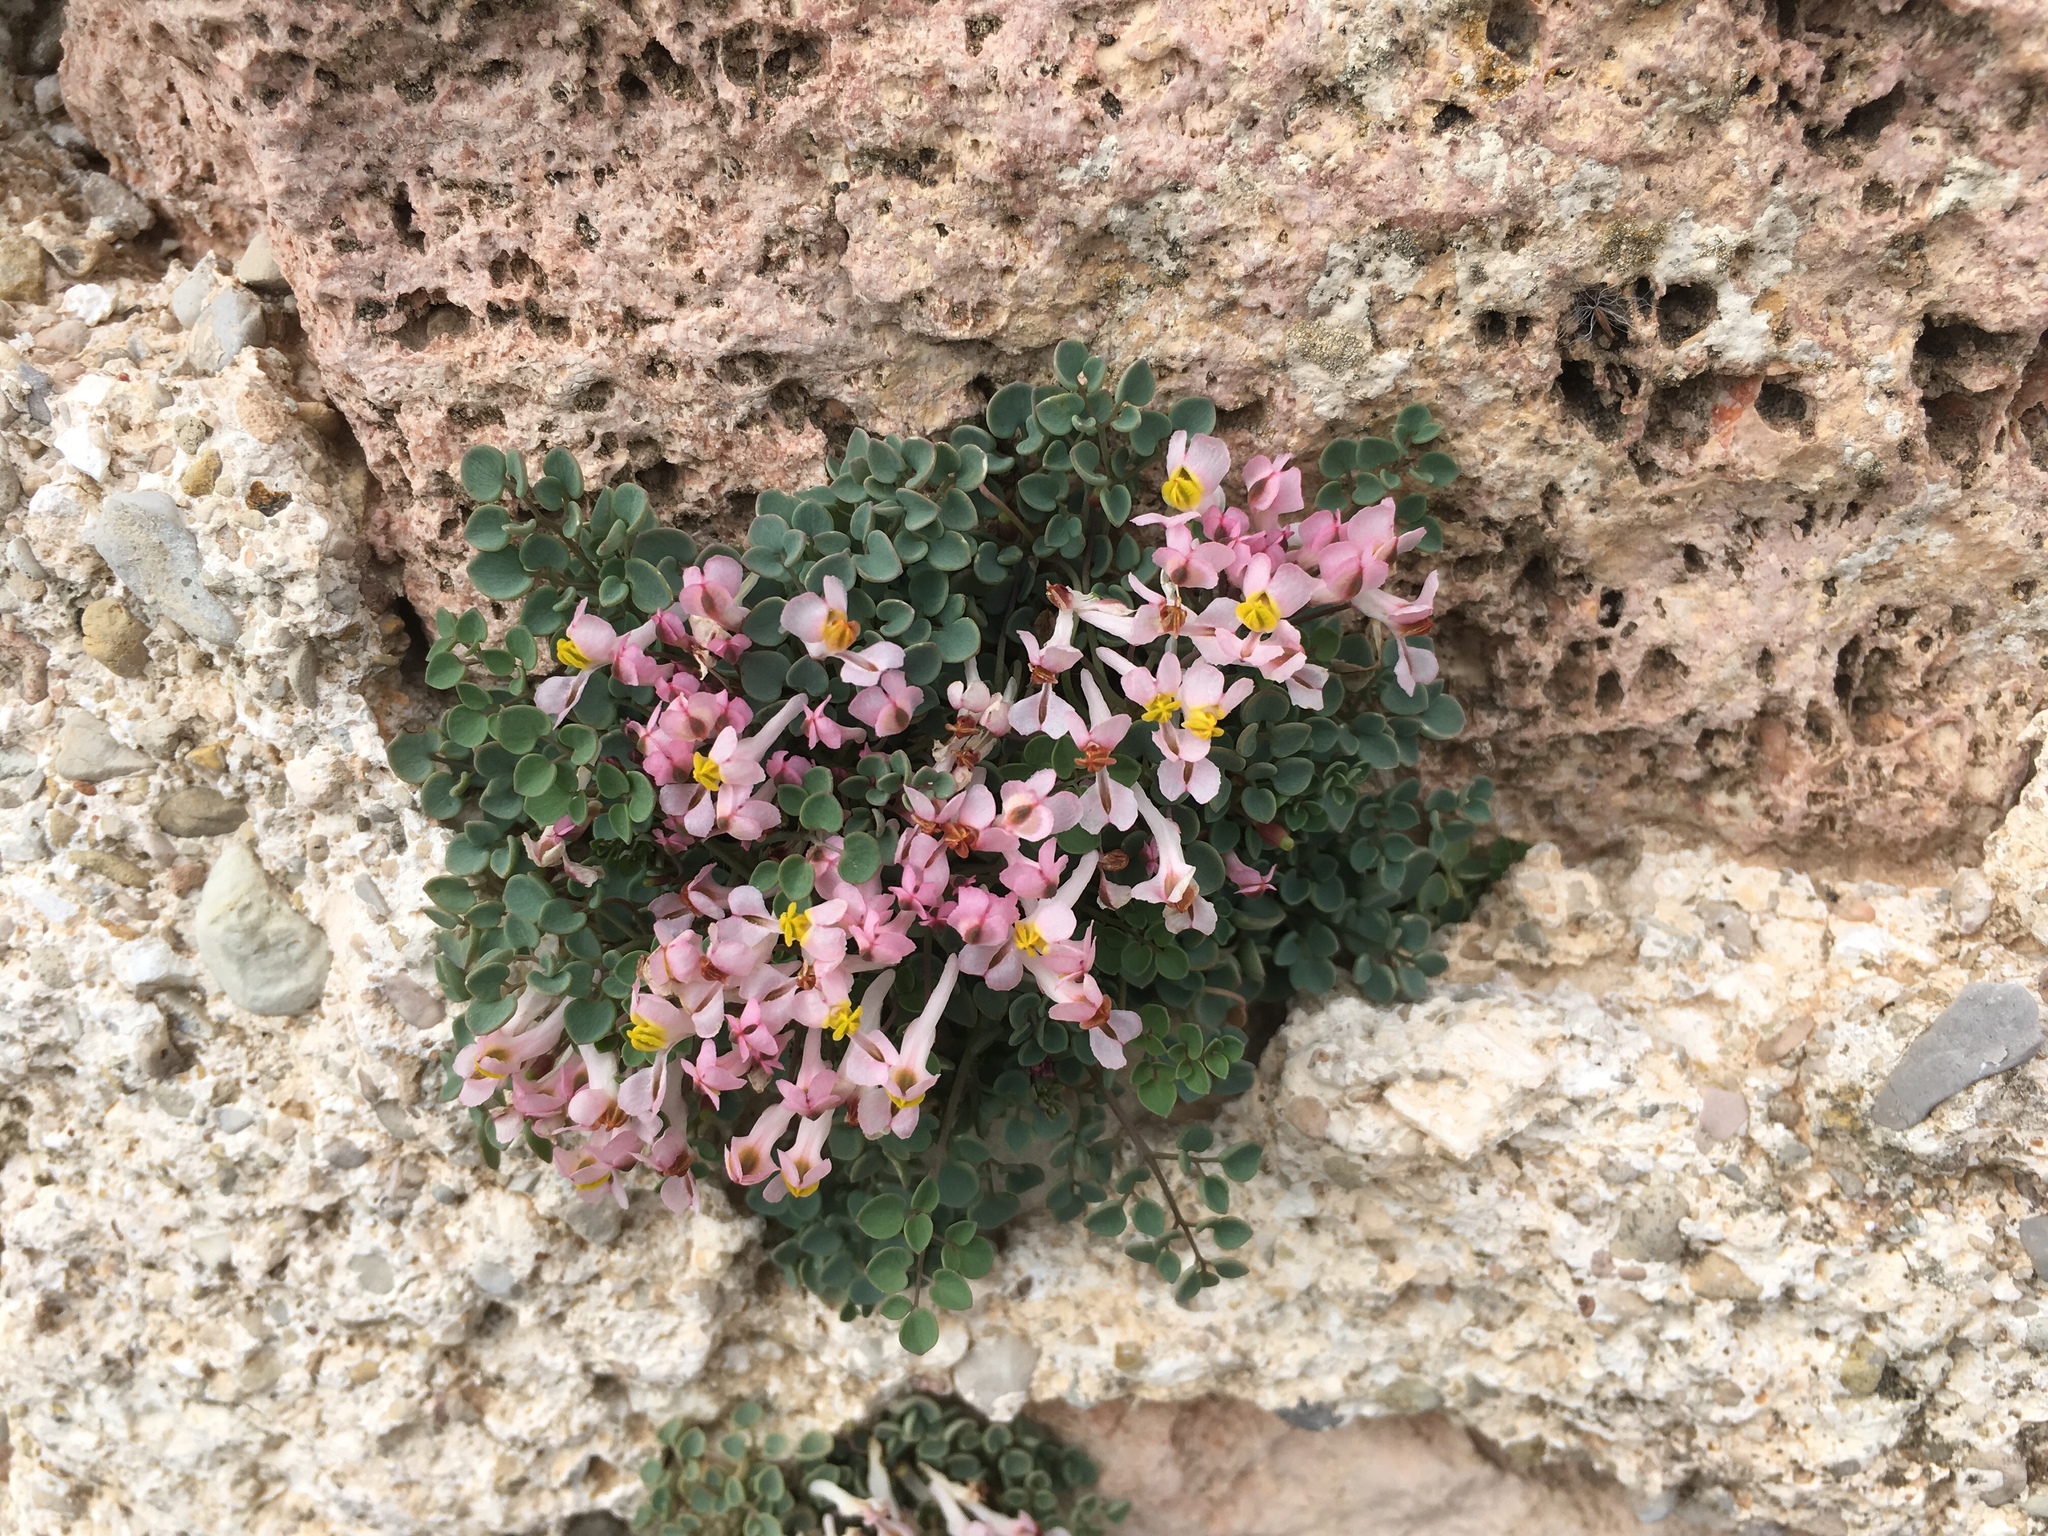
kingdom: Plantae
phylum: Tracheophyta
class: Magnoliopsida
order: Ranunculales
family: Papaveraceae
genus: Sarcocapnos
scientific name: Sarcocapnos enneaphylla
